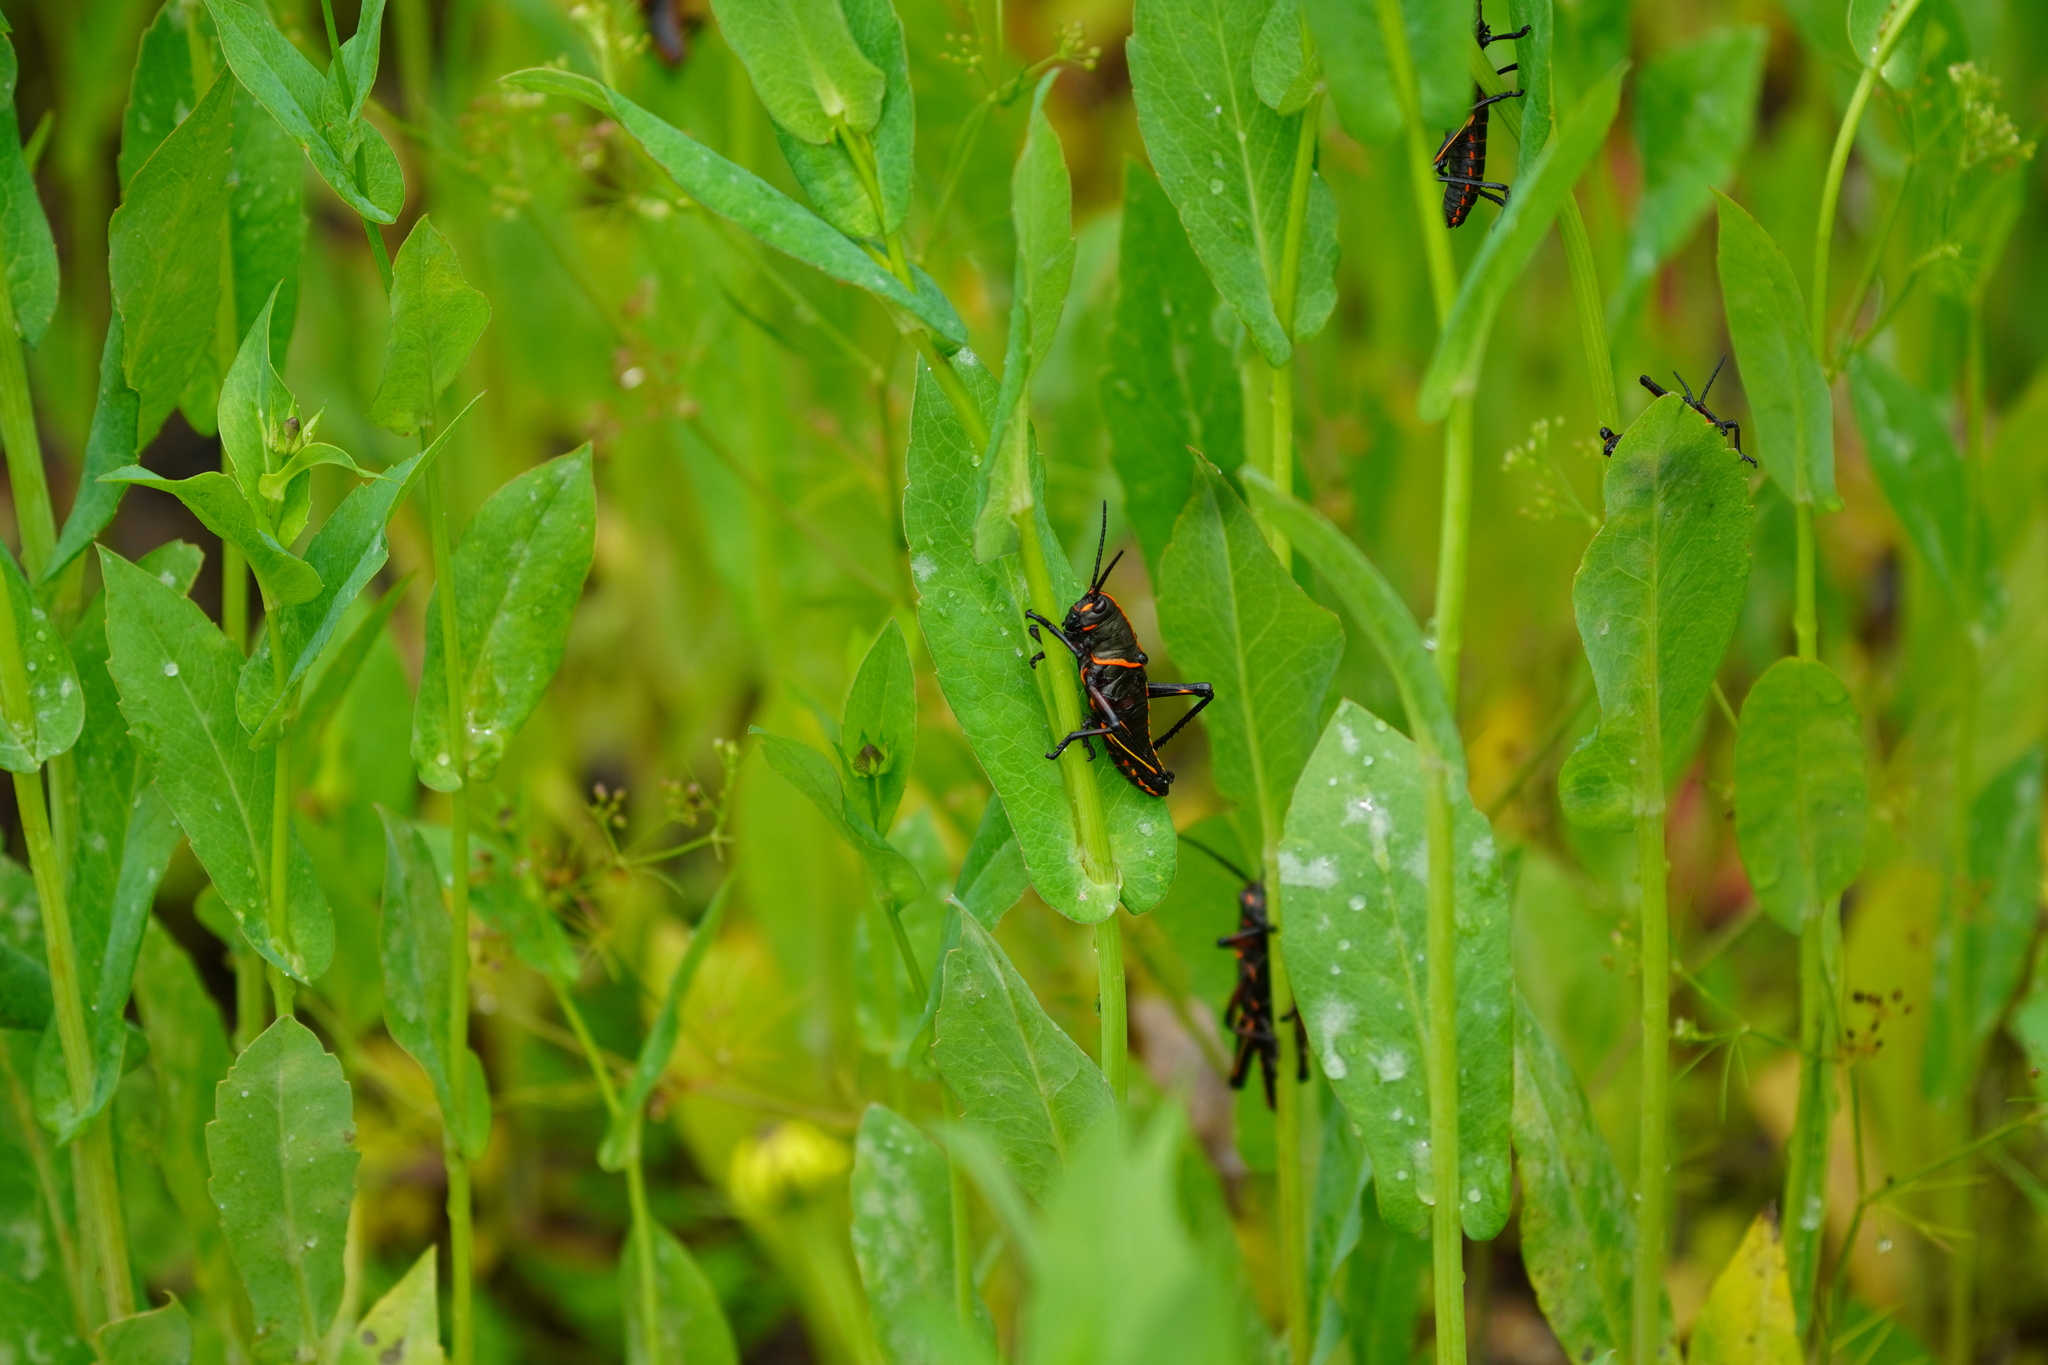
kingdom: Animalia
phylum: Arthropoda
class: Insecta
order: Orthoptera
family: Romaleidae
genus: Romalea
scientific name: Romalea microptera
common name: Eastern lubber grasshopper
